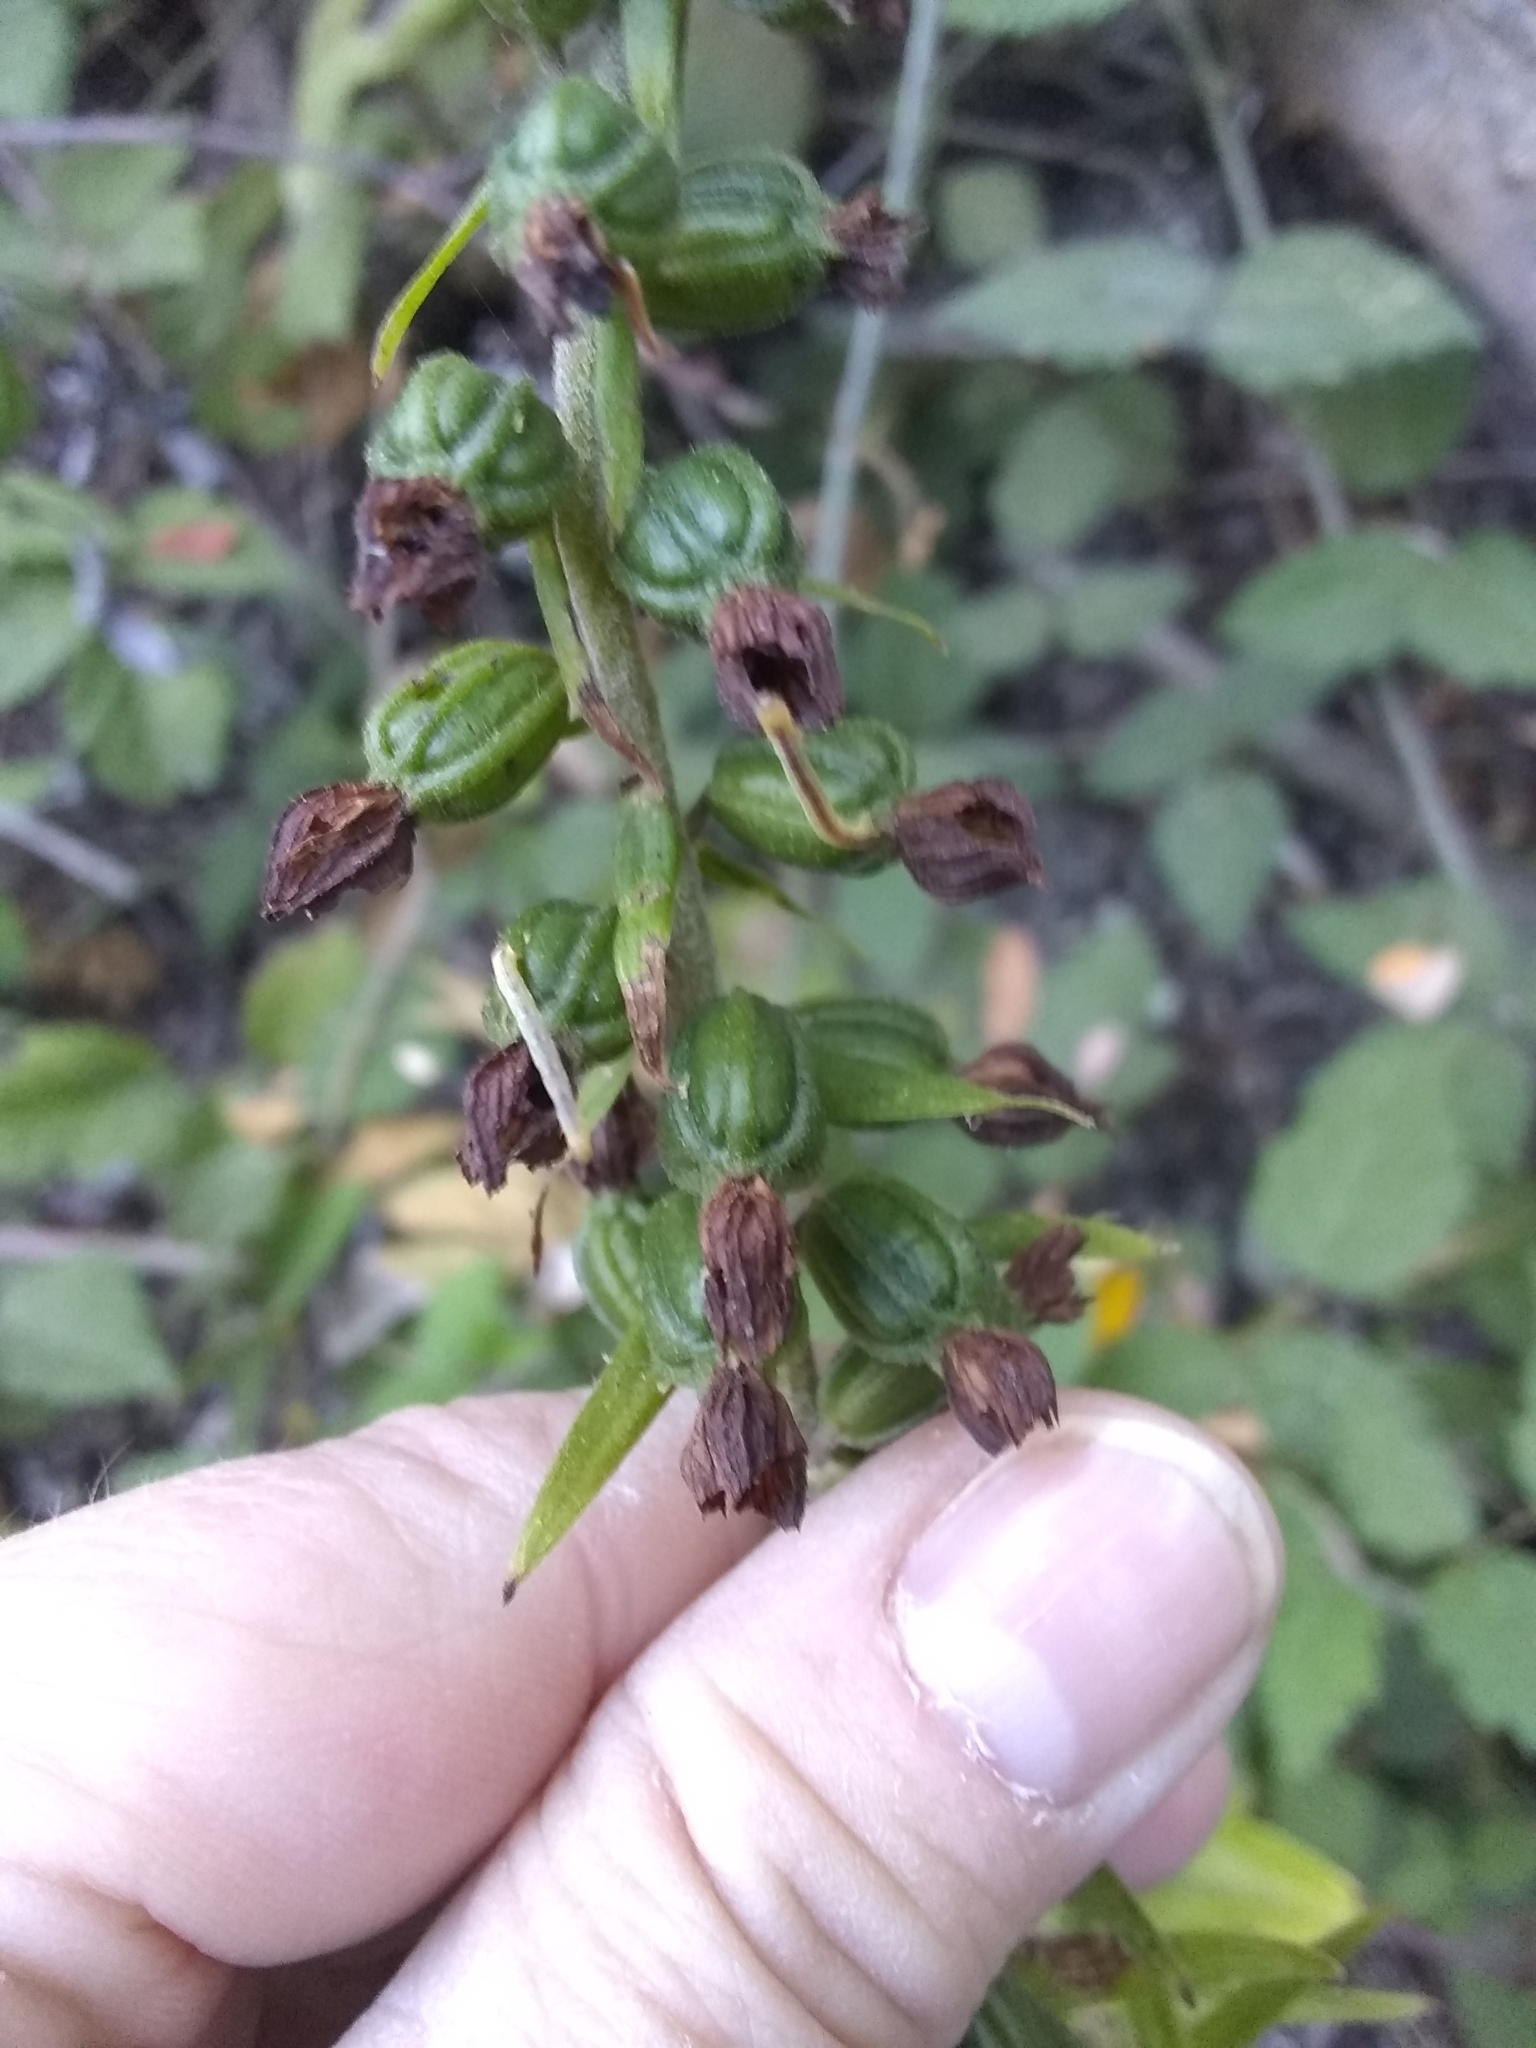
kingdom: Plantae
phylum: Tracheophyta
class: Liliopsida
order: Asparagales
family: Orchidaceae
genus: Epipactis
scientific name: Epipactis helleborine
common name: Broad-leaved helleborine
